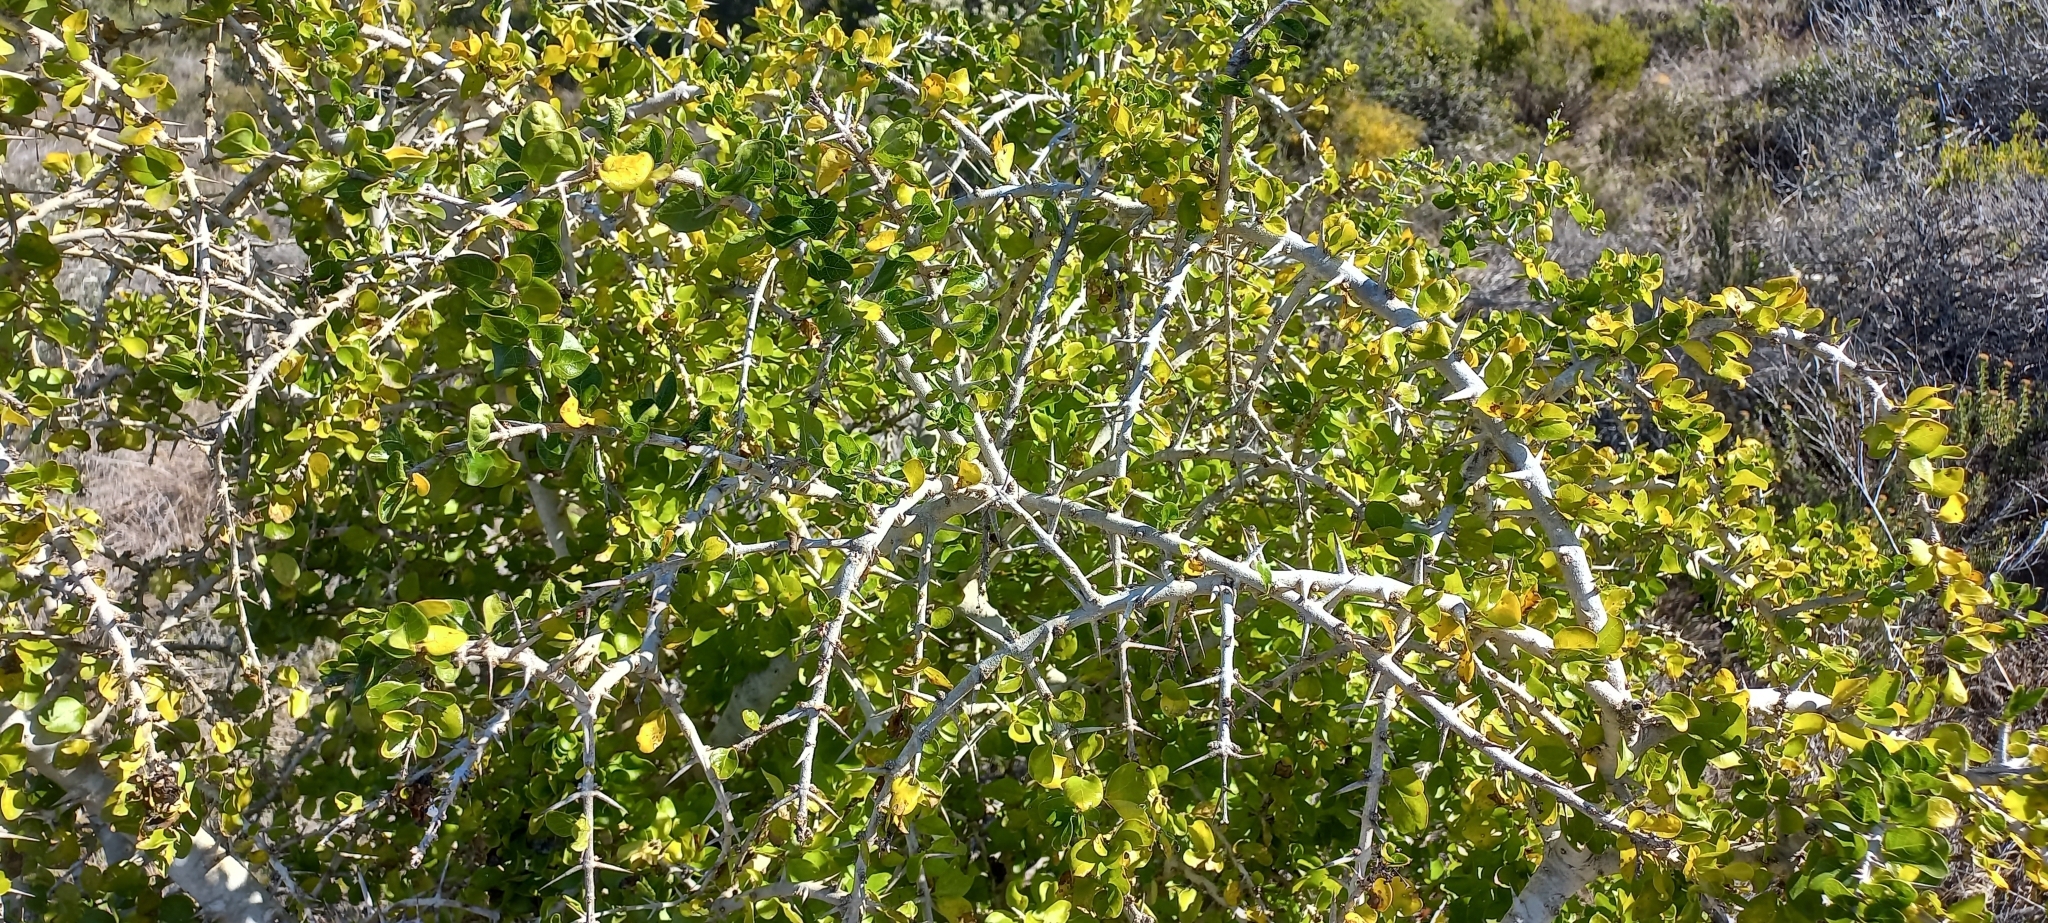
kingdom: Plantae
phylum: Tracheophyta
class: Magnoliopsida
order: Gentianales
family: Rubiaceae
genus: Catunaregam
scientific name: Catunaregam spinosa
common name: Emetic-nut
